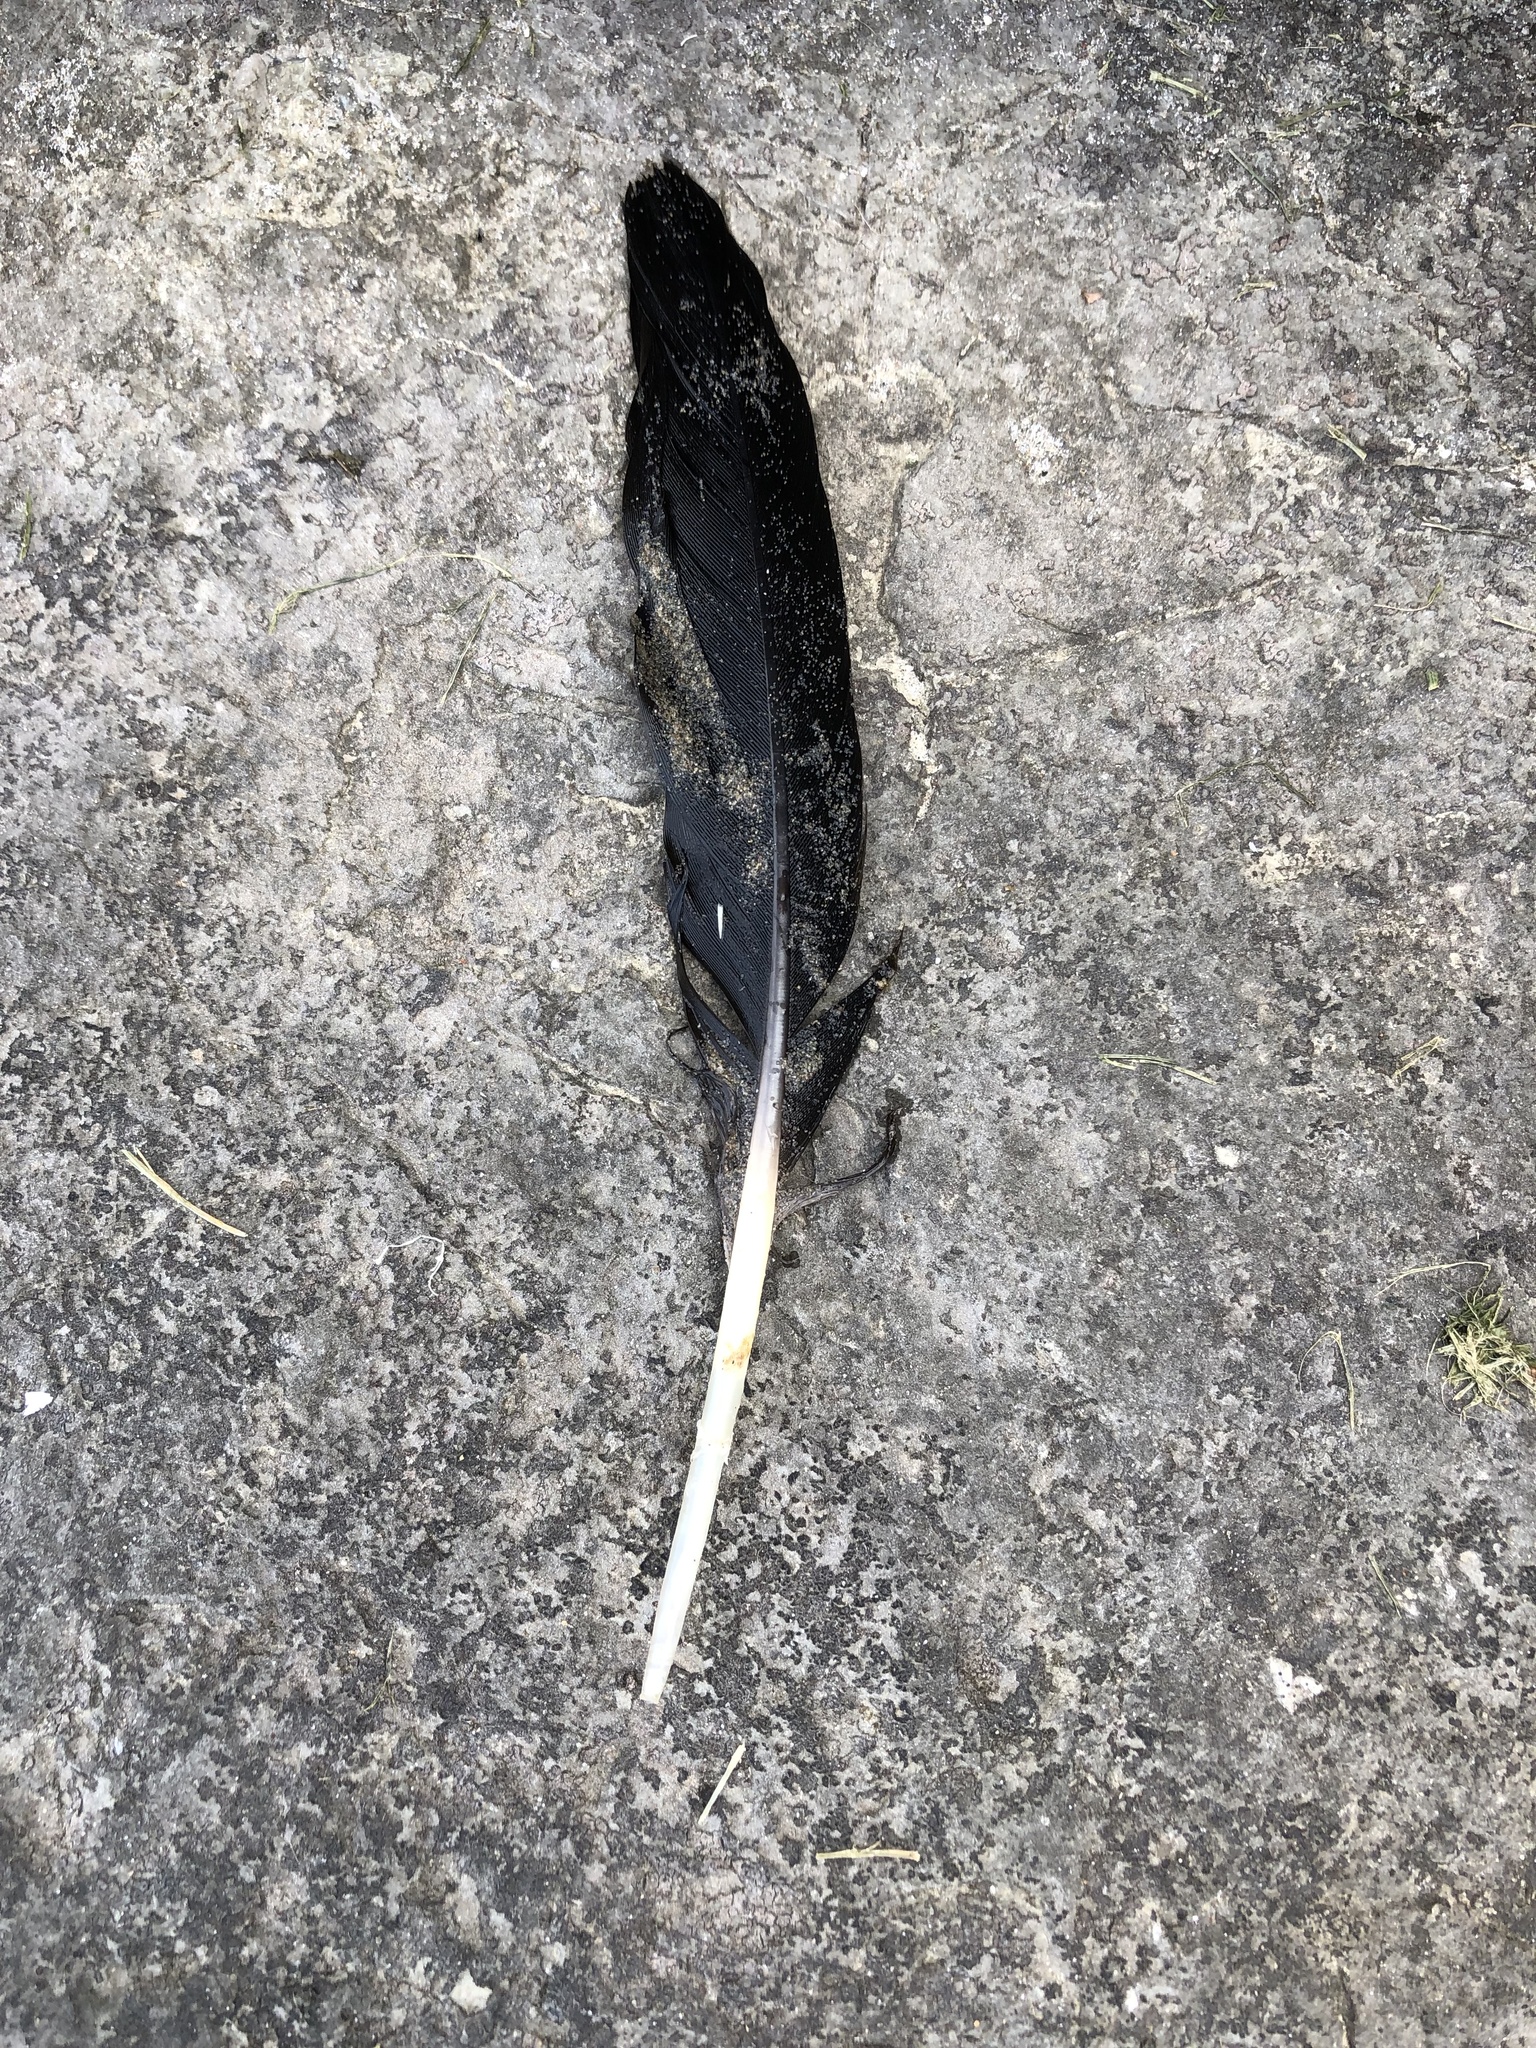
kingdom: Animalia
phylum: Chordata
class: Aves
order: Anseriformes
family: Anatidae
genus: Branta
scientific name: Branta canadensis
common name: Canada goose
